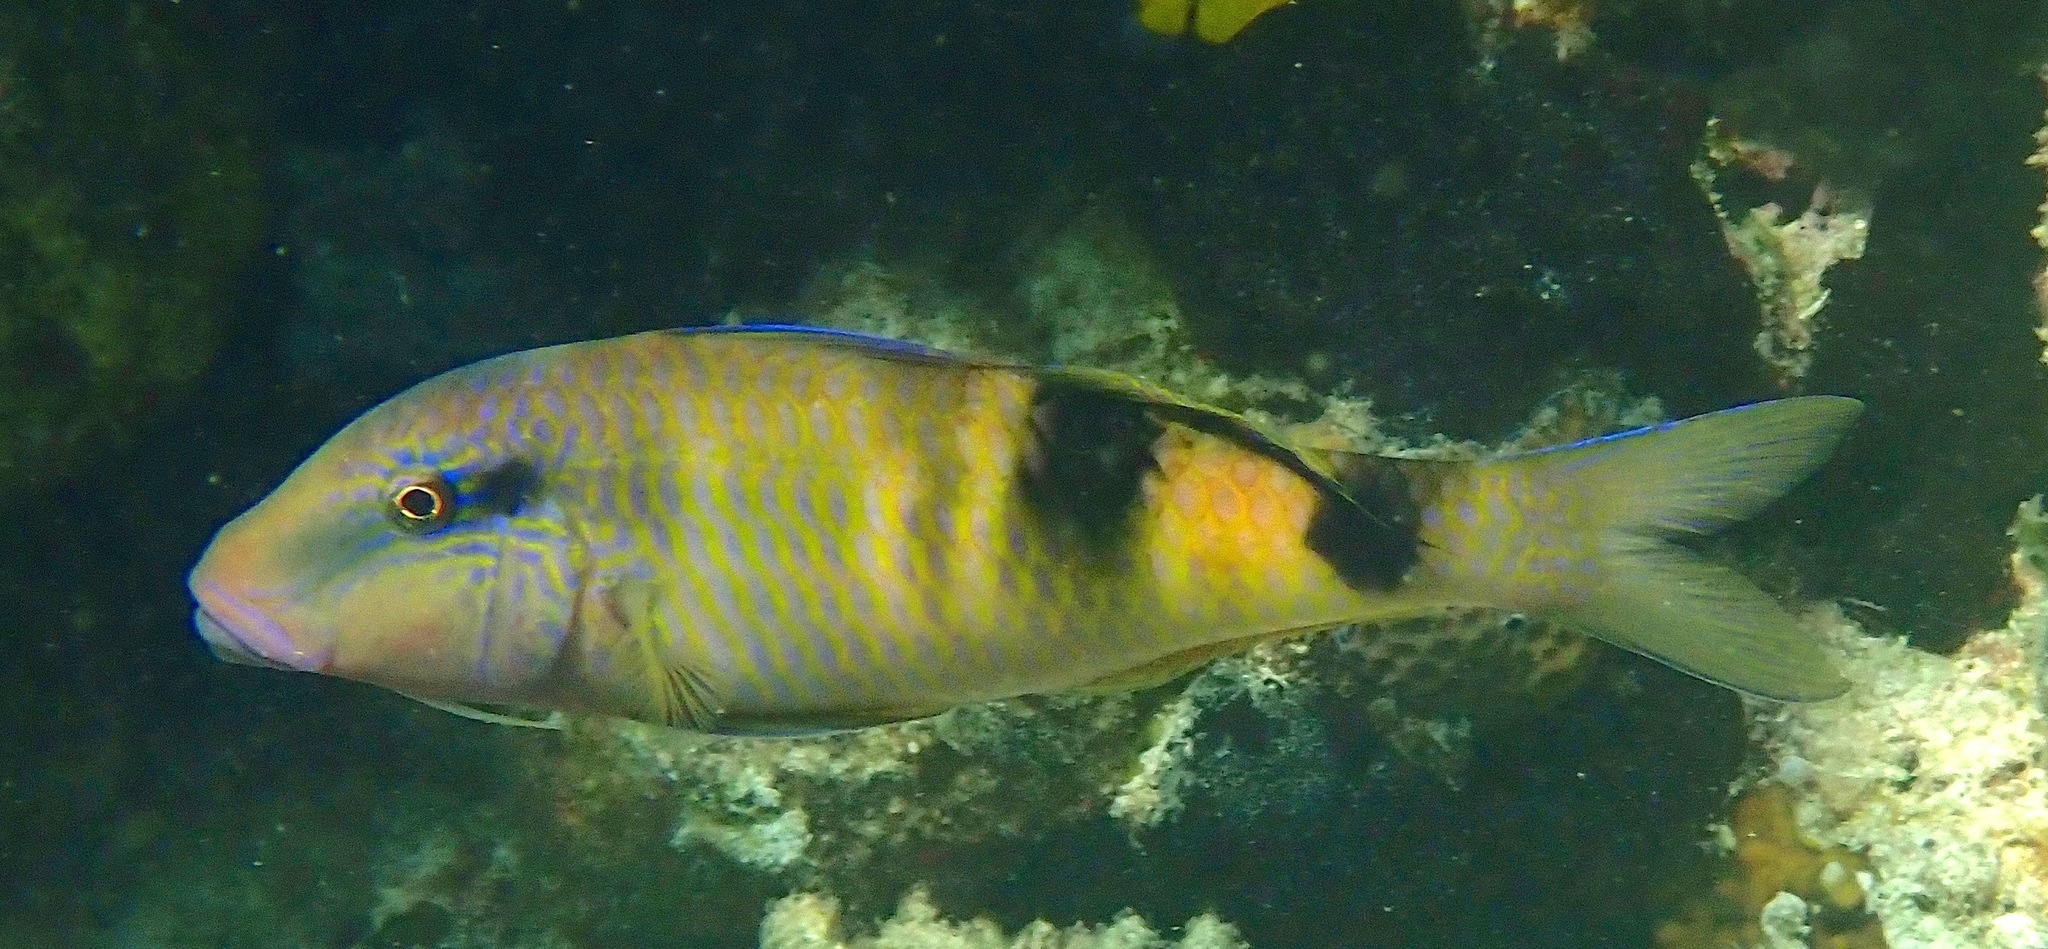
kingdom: Animalia
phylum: Chordata
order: Perciformes
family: Mullidae
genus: Parupeneus
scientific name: Parupeneus multifasciatus
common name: Manybar goatfish
